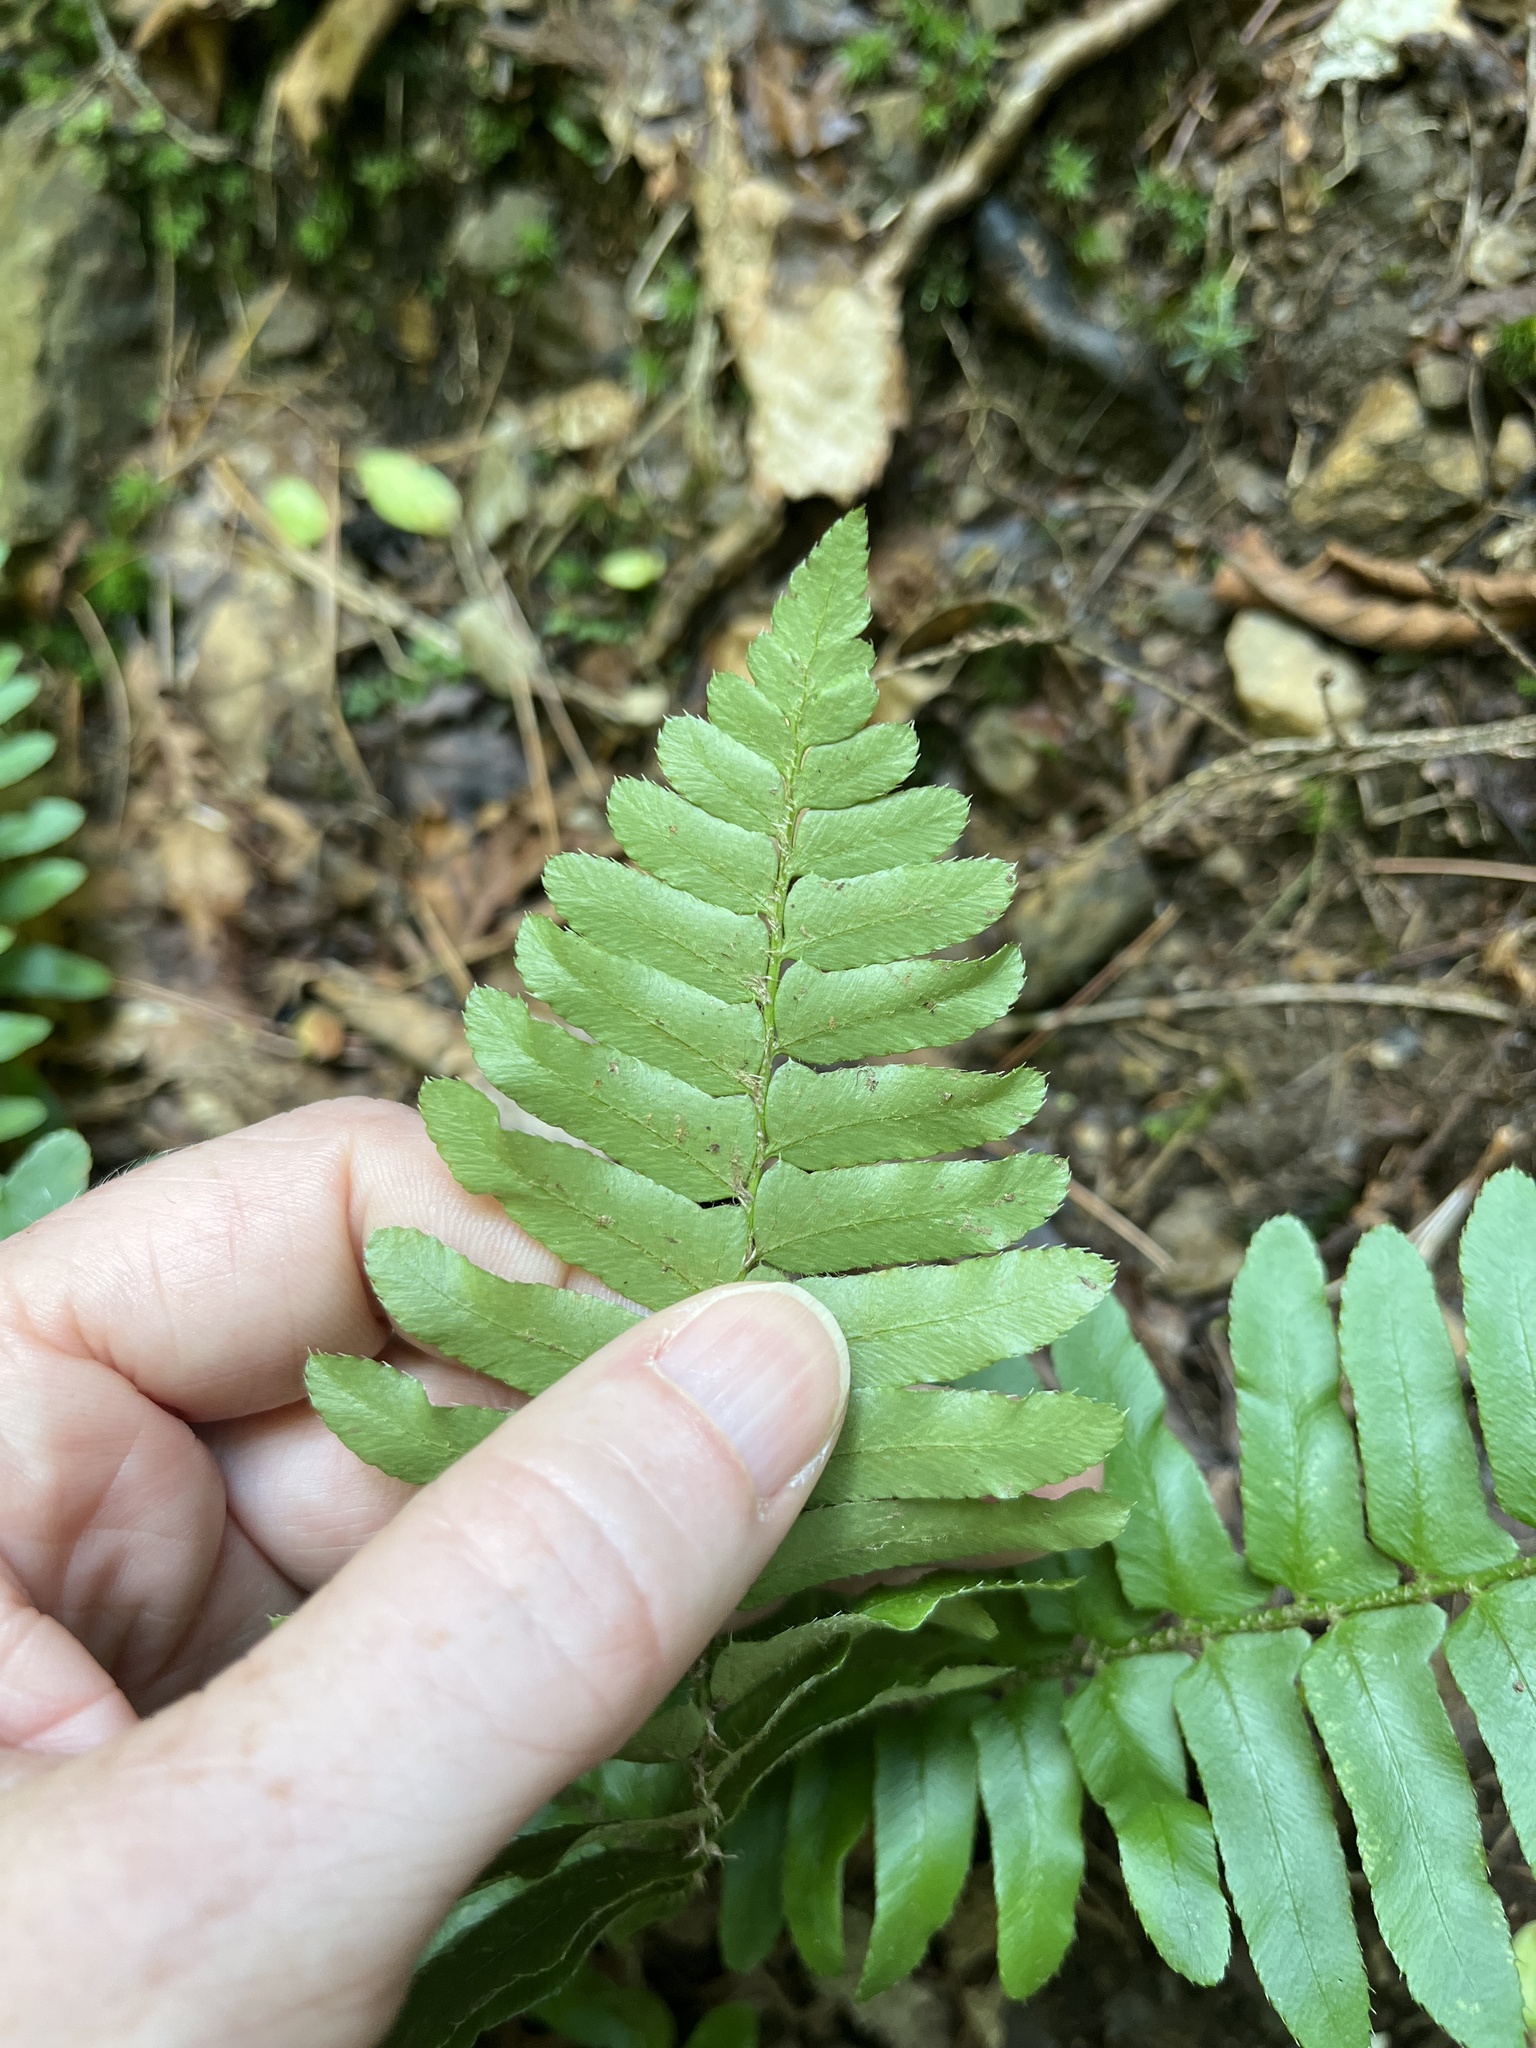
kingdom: Plantae
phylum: Tracheophyta
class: Polypodiopsida
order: Polypodiales
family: Dryopteridaceae
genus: Polystichum
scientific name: Polystichum acrostichoides
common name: Christmas fern
